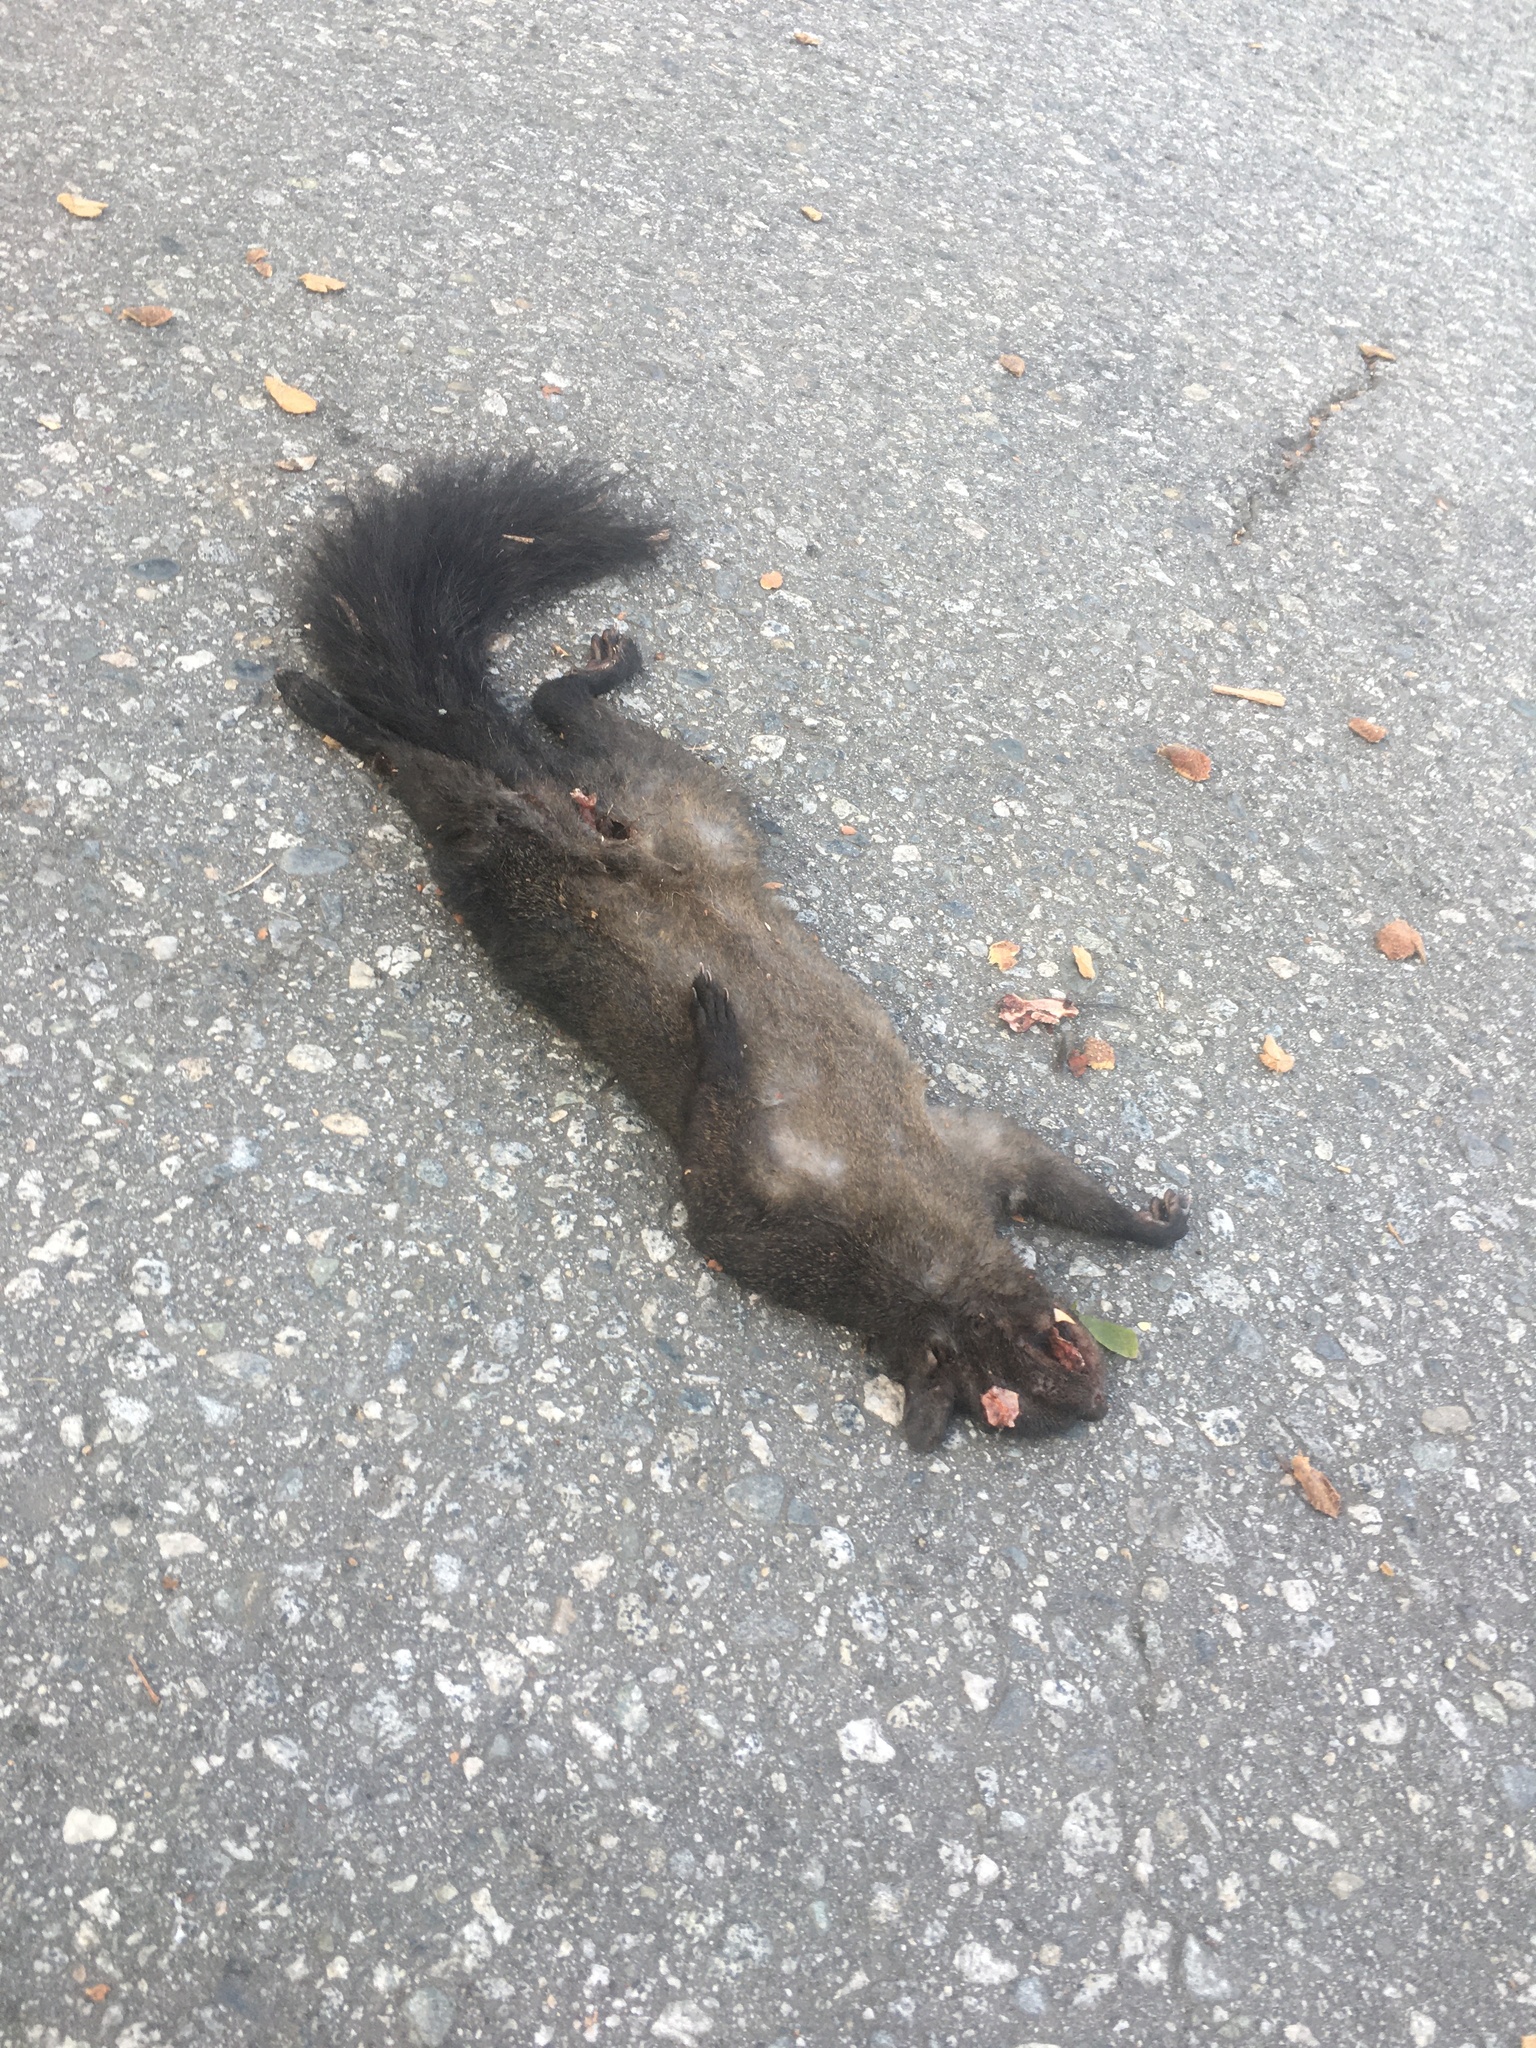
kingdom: Animalia
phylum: Chordata
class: Mammalia
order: Rodentia
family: Sciuridae
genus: Sciurus
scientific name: Sciurus carolinensis
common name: Eastern gray squirrel
